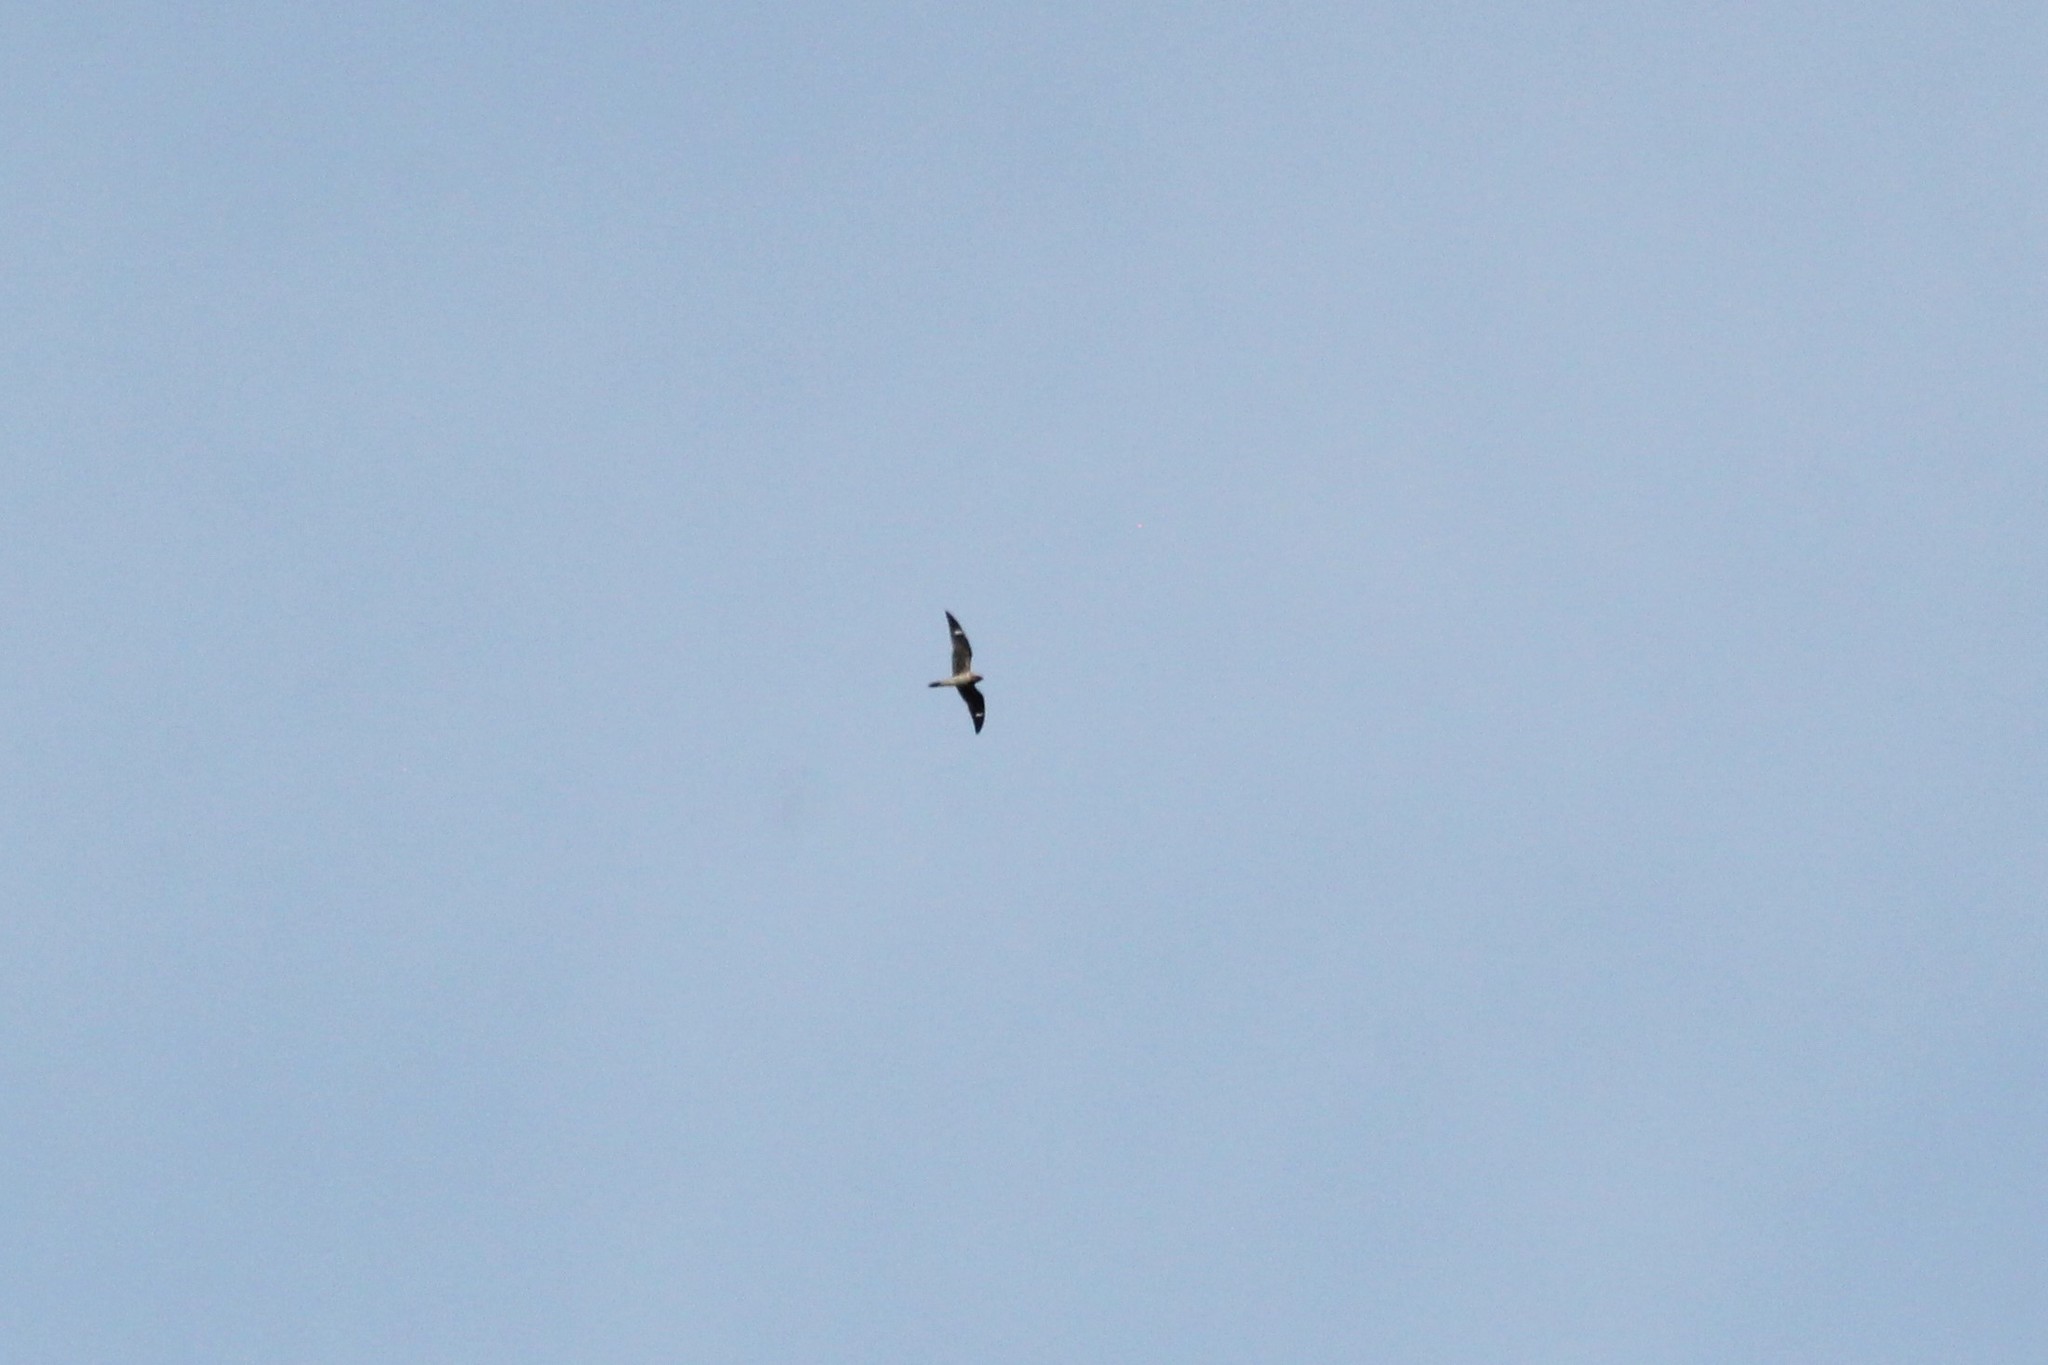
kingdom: Animalia
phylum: Chordata
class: Aves
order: Caprimulgiformes
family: Caprimulgidae
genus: Chordeiles
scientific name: Chordeiles minor
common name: Common nighthawk
